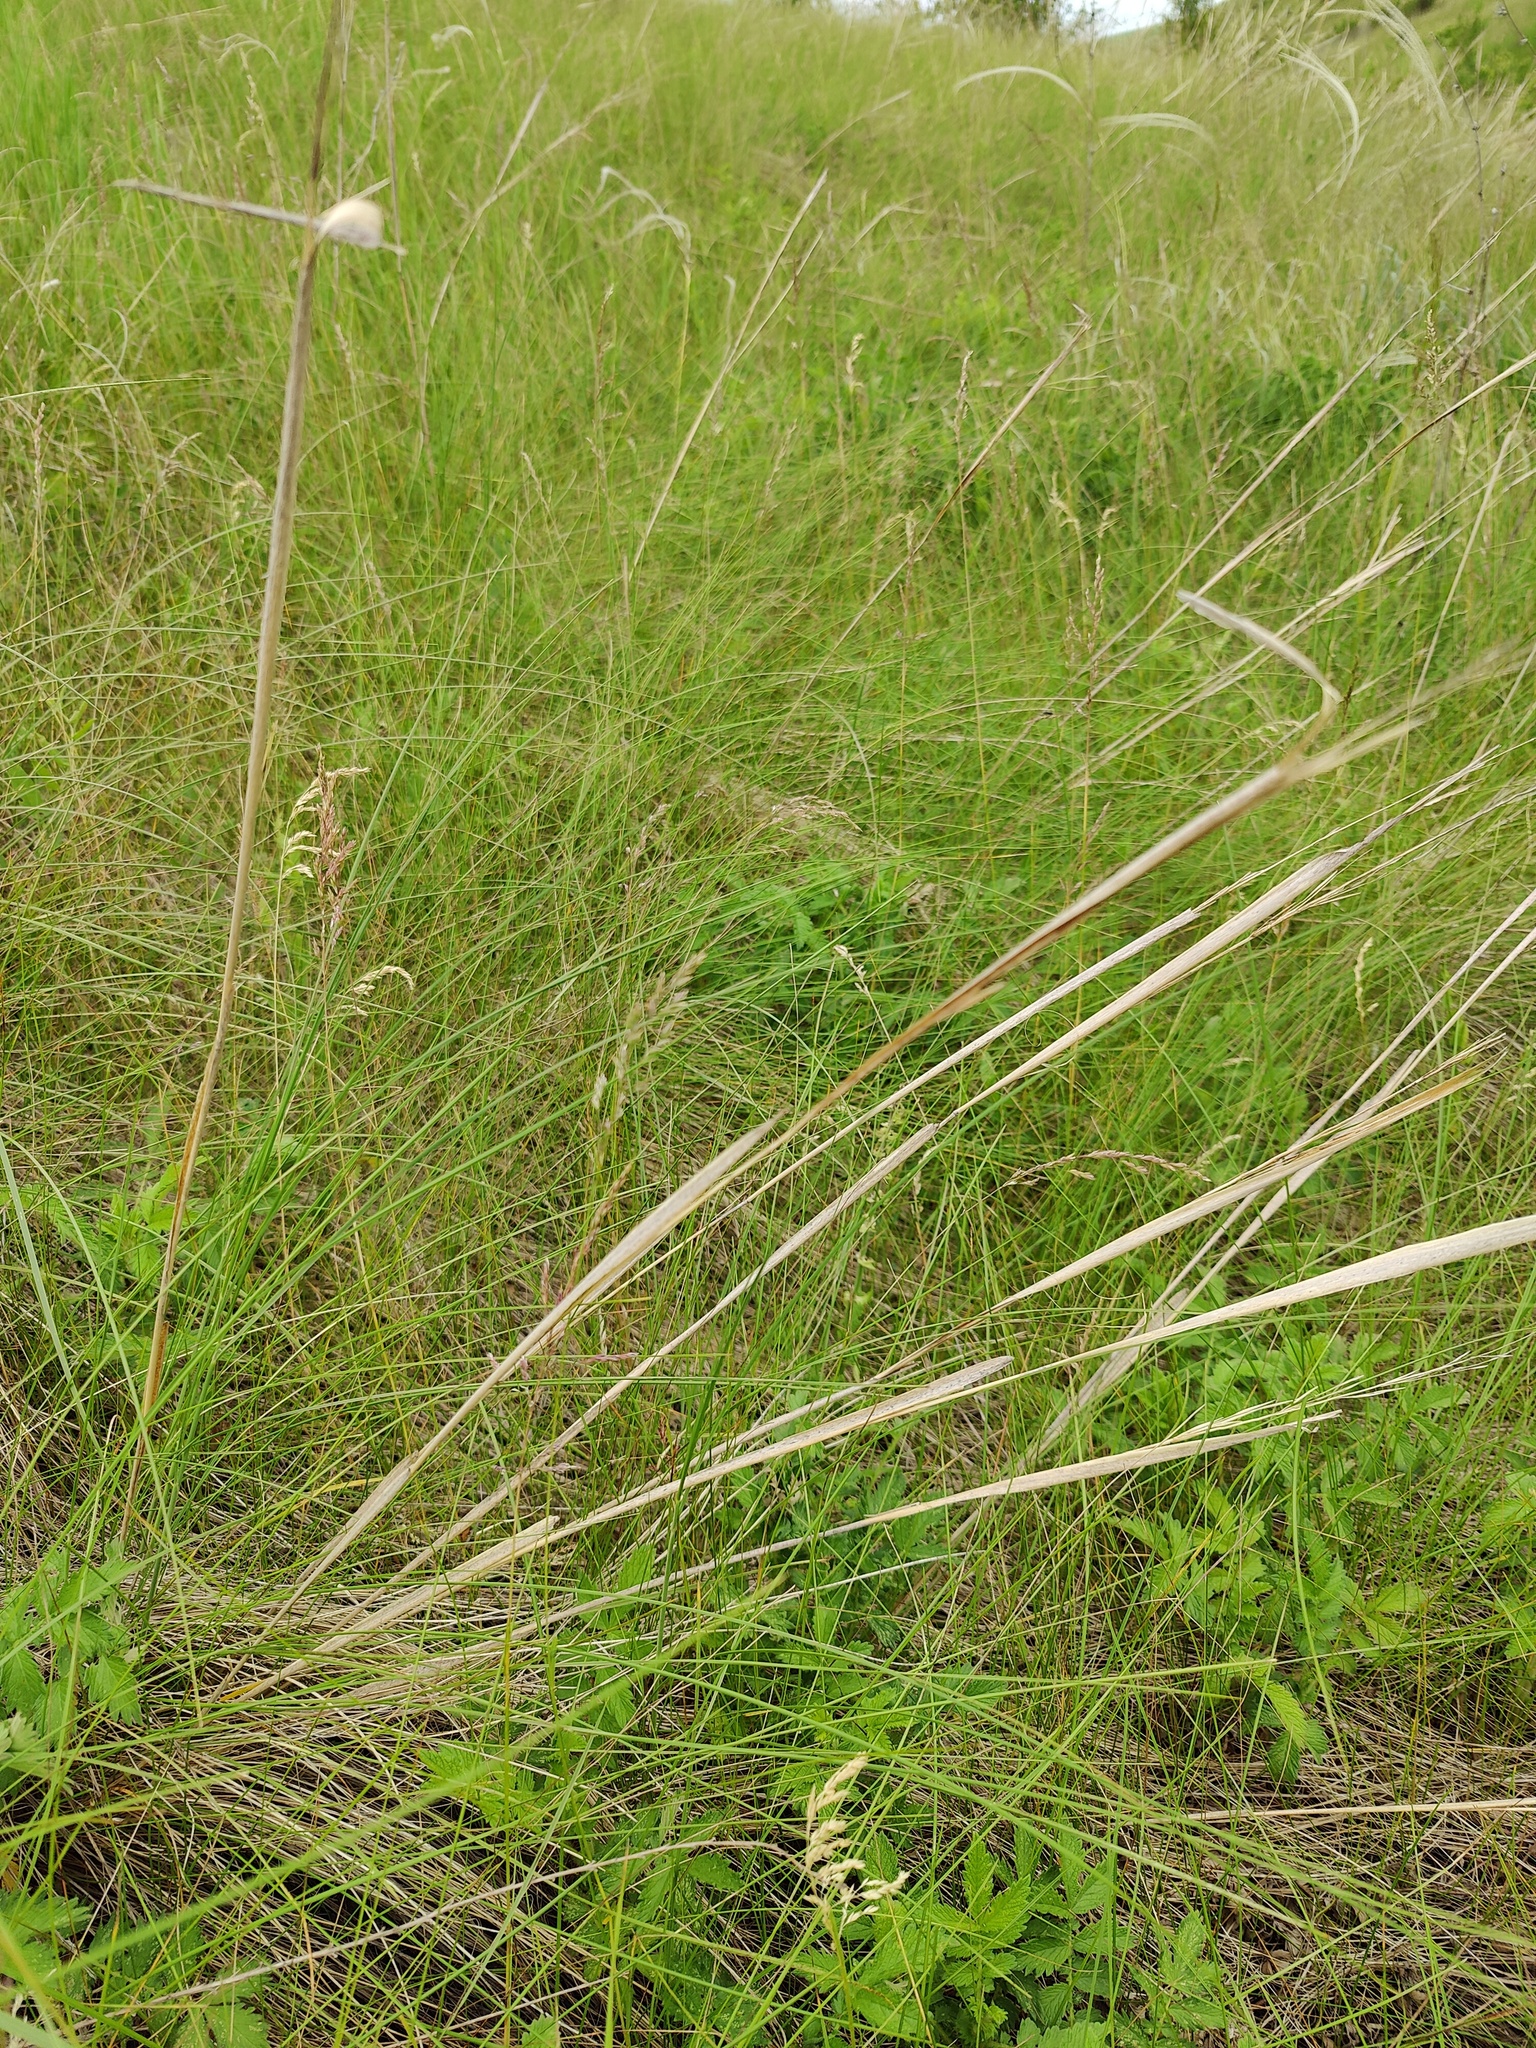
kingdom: Plantae
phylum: Tracheophyta
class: Liliopsida
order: Poales
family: Poaceae
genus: Stipa
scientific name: Stipa capillata
